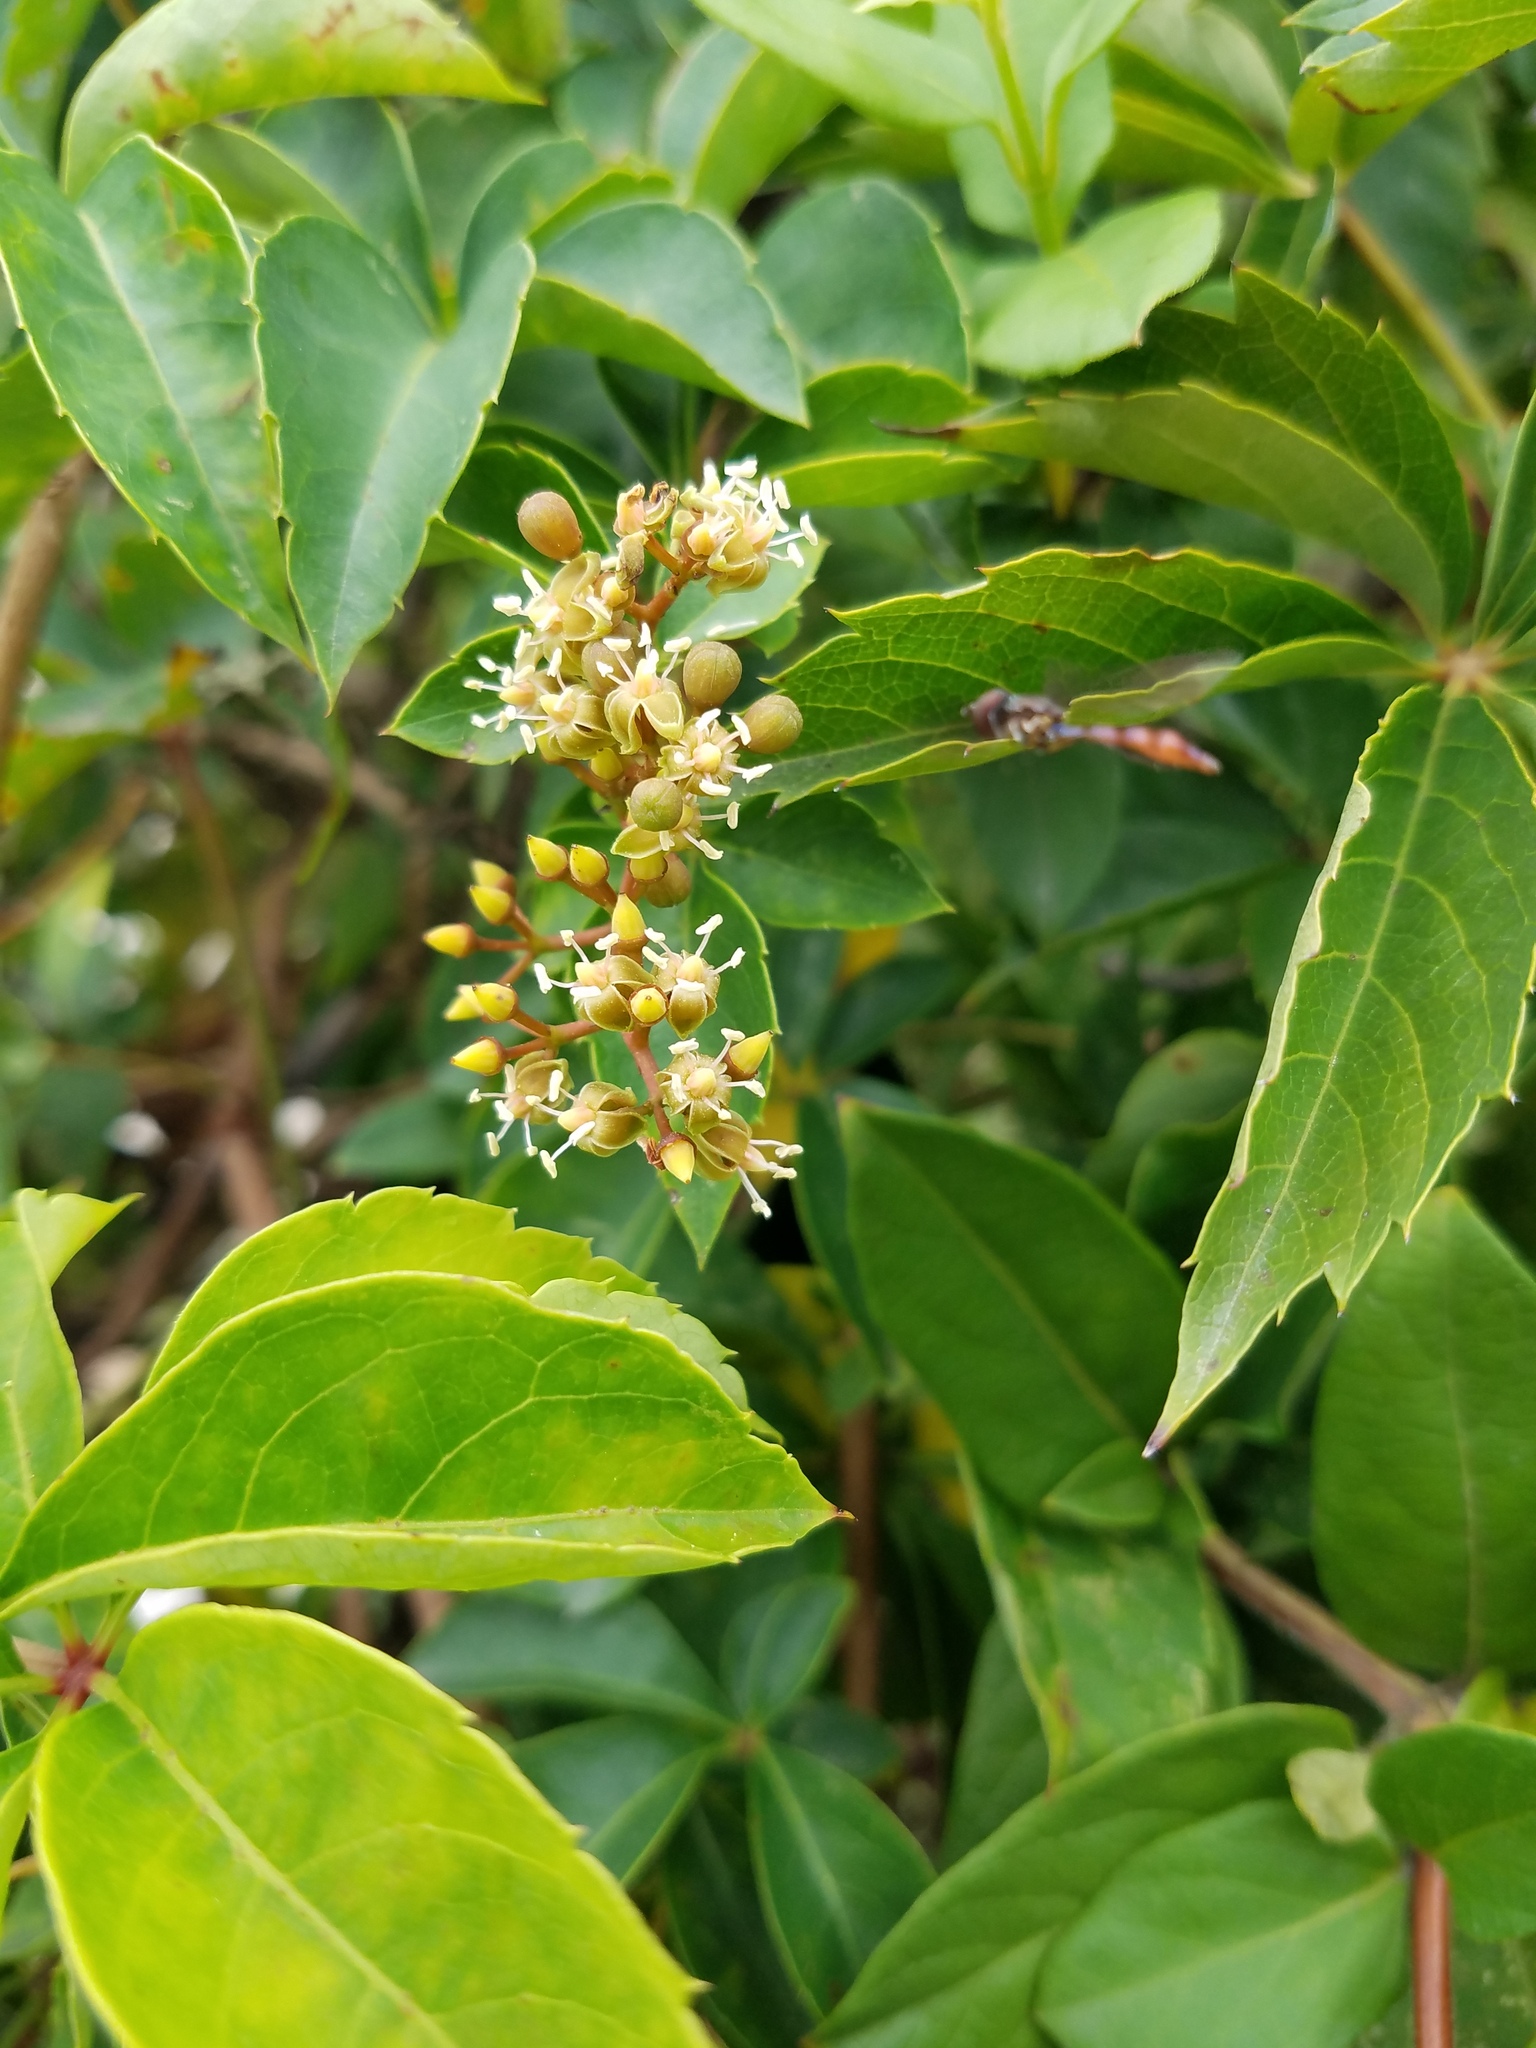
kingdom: Plantae
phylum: Tracheophyta
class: Magnoliopsida
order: Vitales
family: Vitaceae
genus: Parthenocissus
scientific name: Parthenocissus quinquefolia
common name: Virginia-creeper
